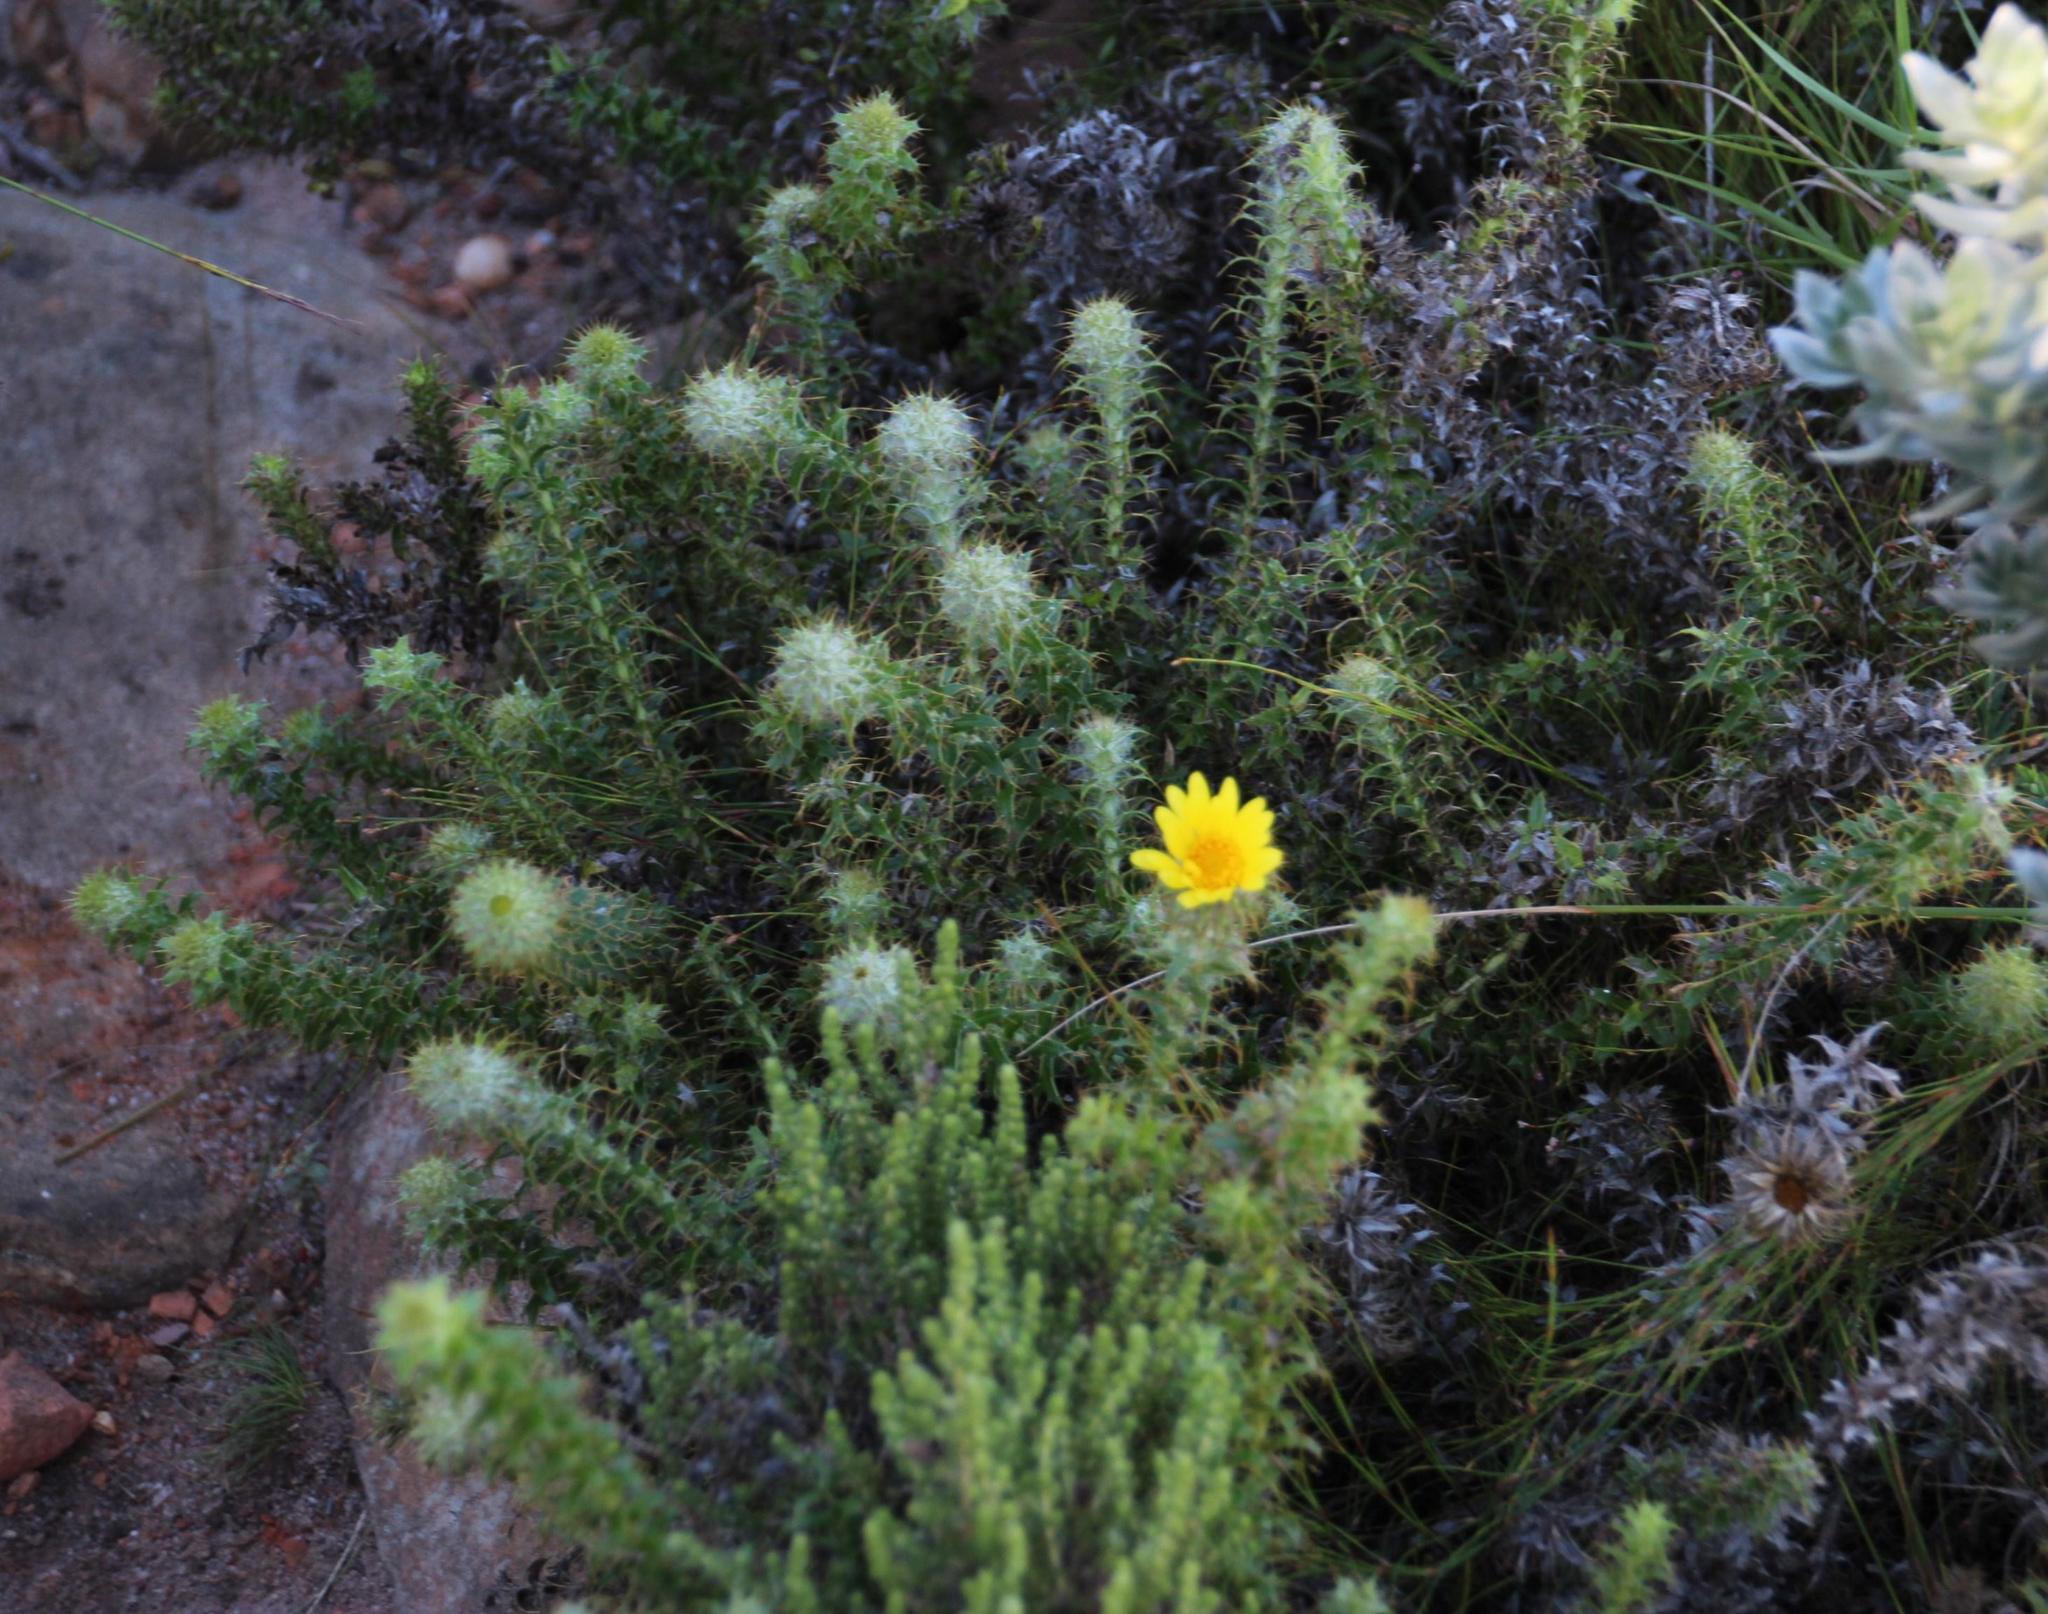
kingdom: Plantae
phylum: Tracheophyta
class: Magnoliopsida
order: Asterales
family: Asteraceae
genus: Cullumia
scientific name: Cullumia setosa
